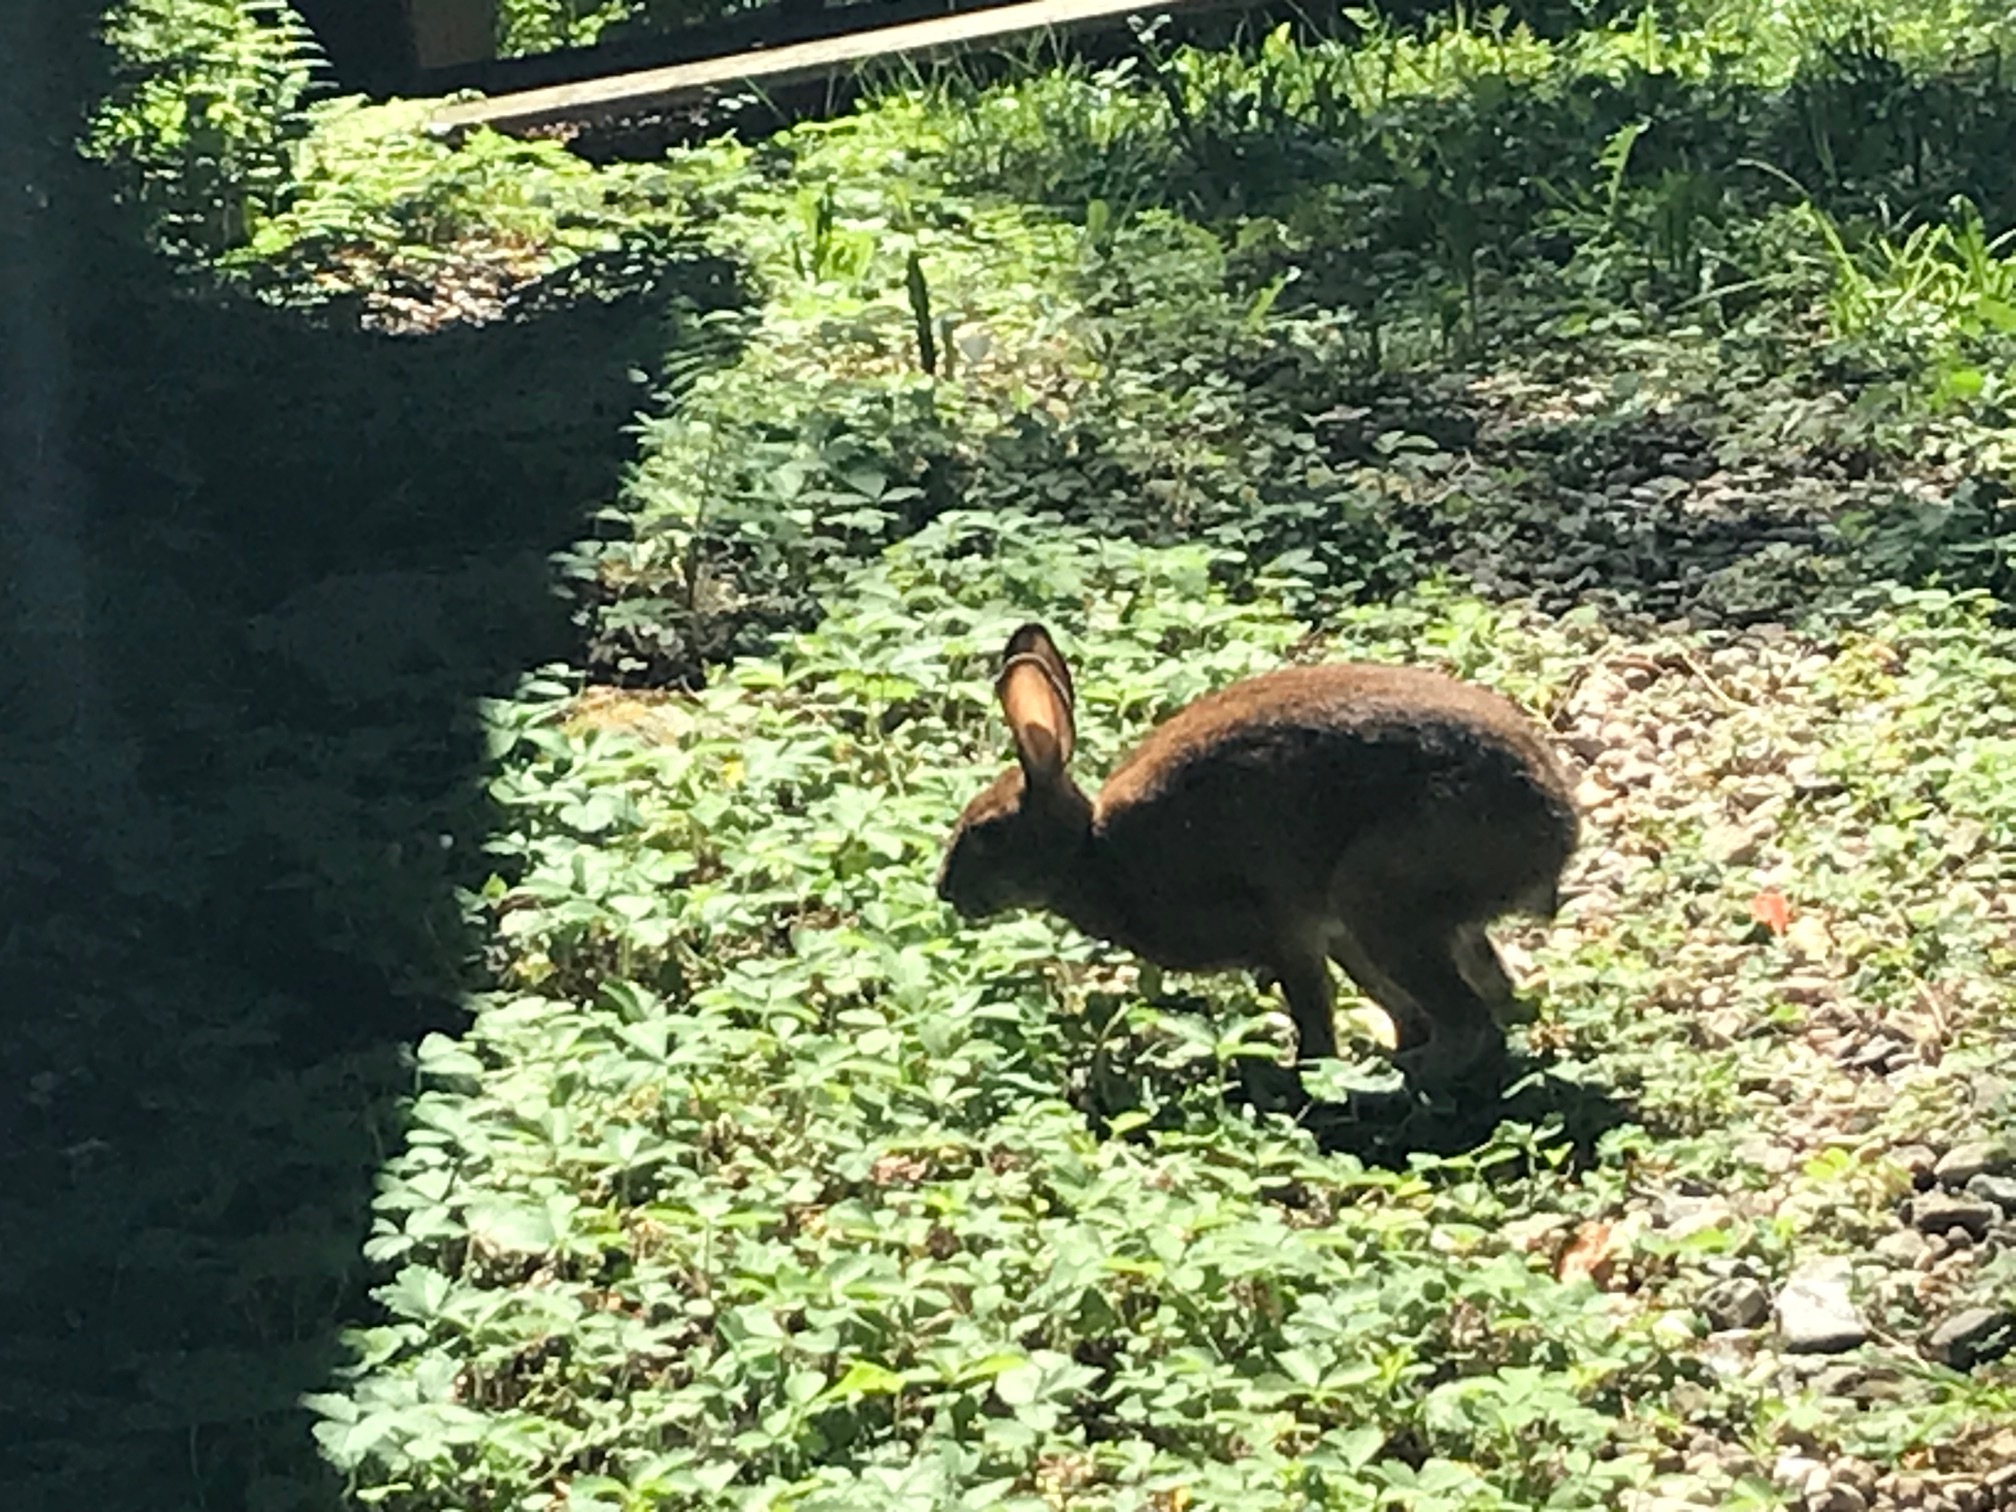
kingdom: Animalia
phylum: Chordata
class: Mammalia
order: Lagomorpha
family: Leporidae
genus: Lepus
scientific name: Lepus americanus
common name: Snowshoe hare
